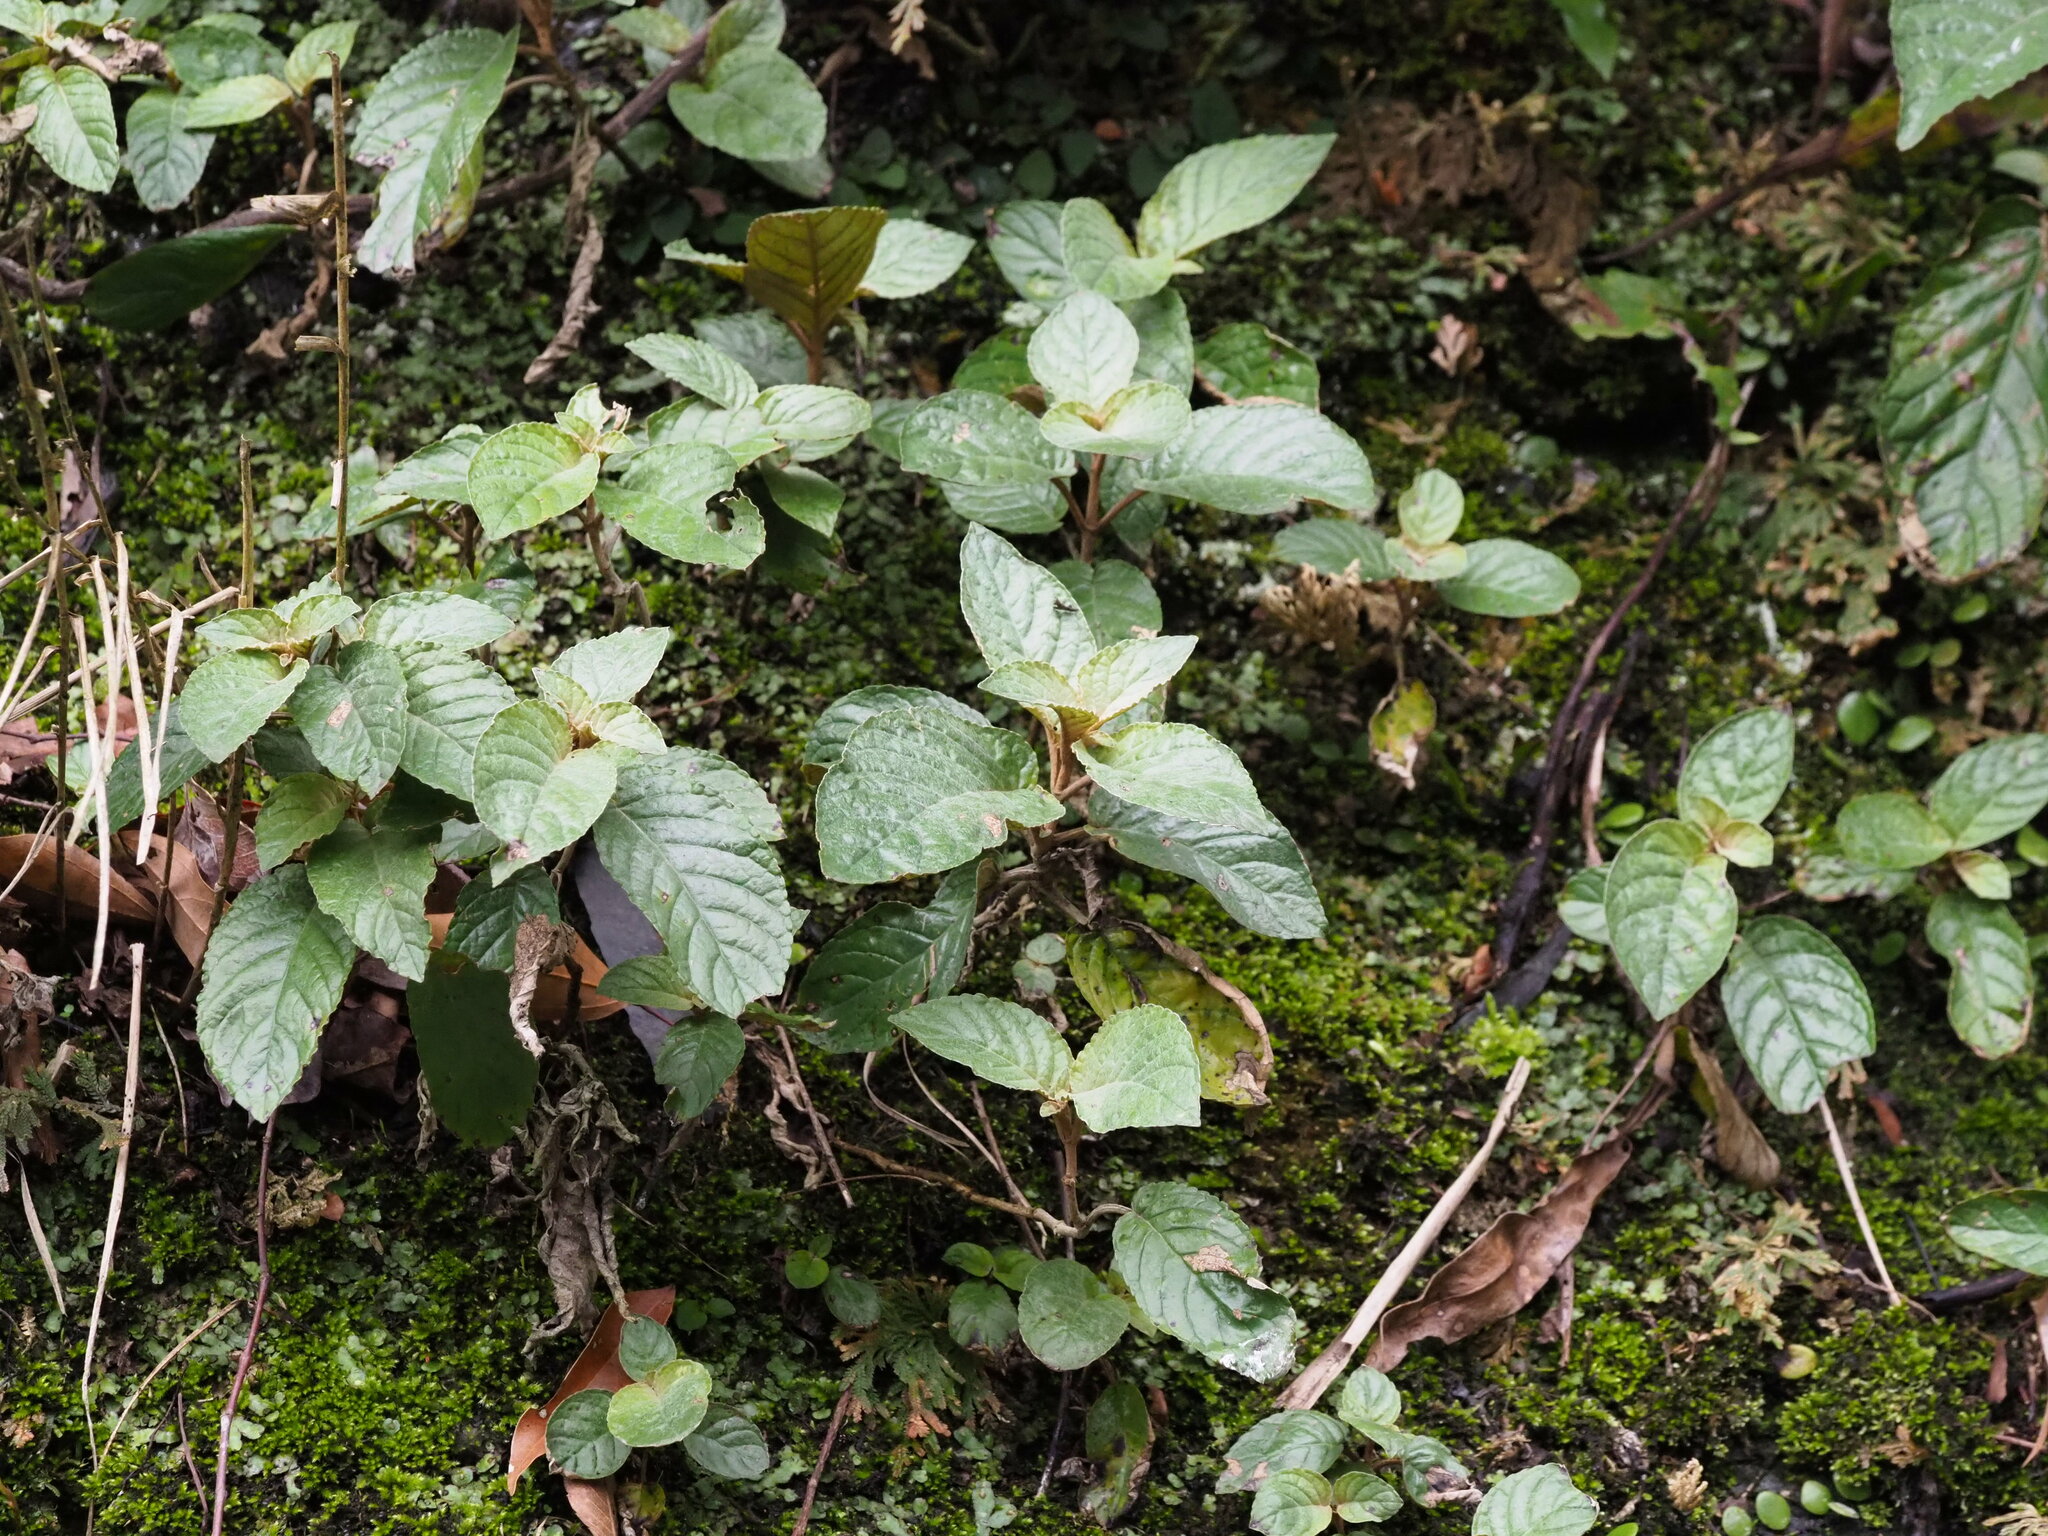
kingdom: Plantae
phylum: Tracheophyta
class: Magnoliopsida
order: Lamiales
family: Gesneriaceae
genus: Paraboea
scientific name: Paraboea swinhoei
